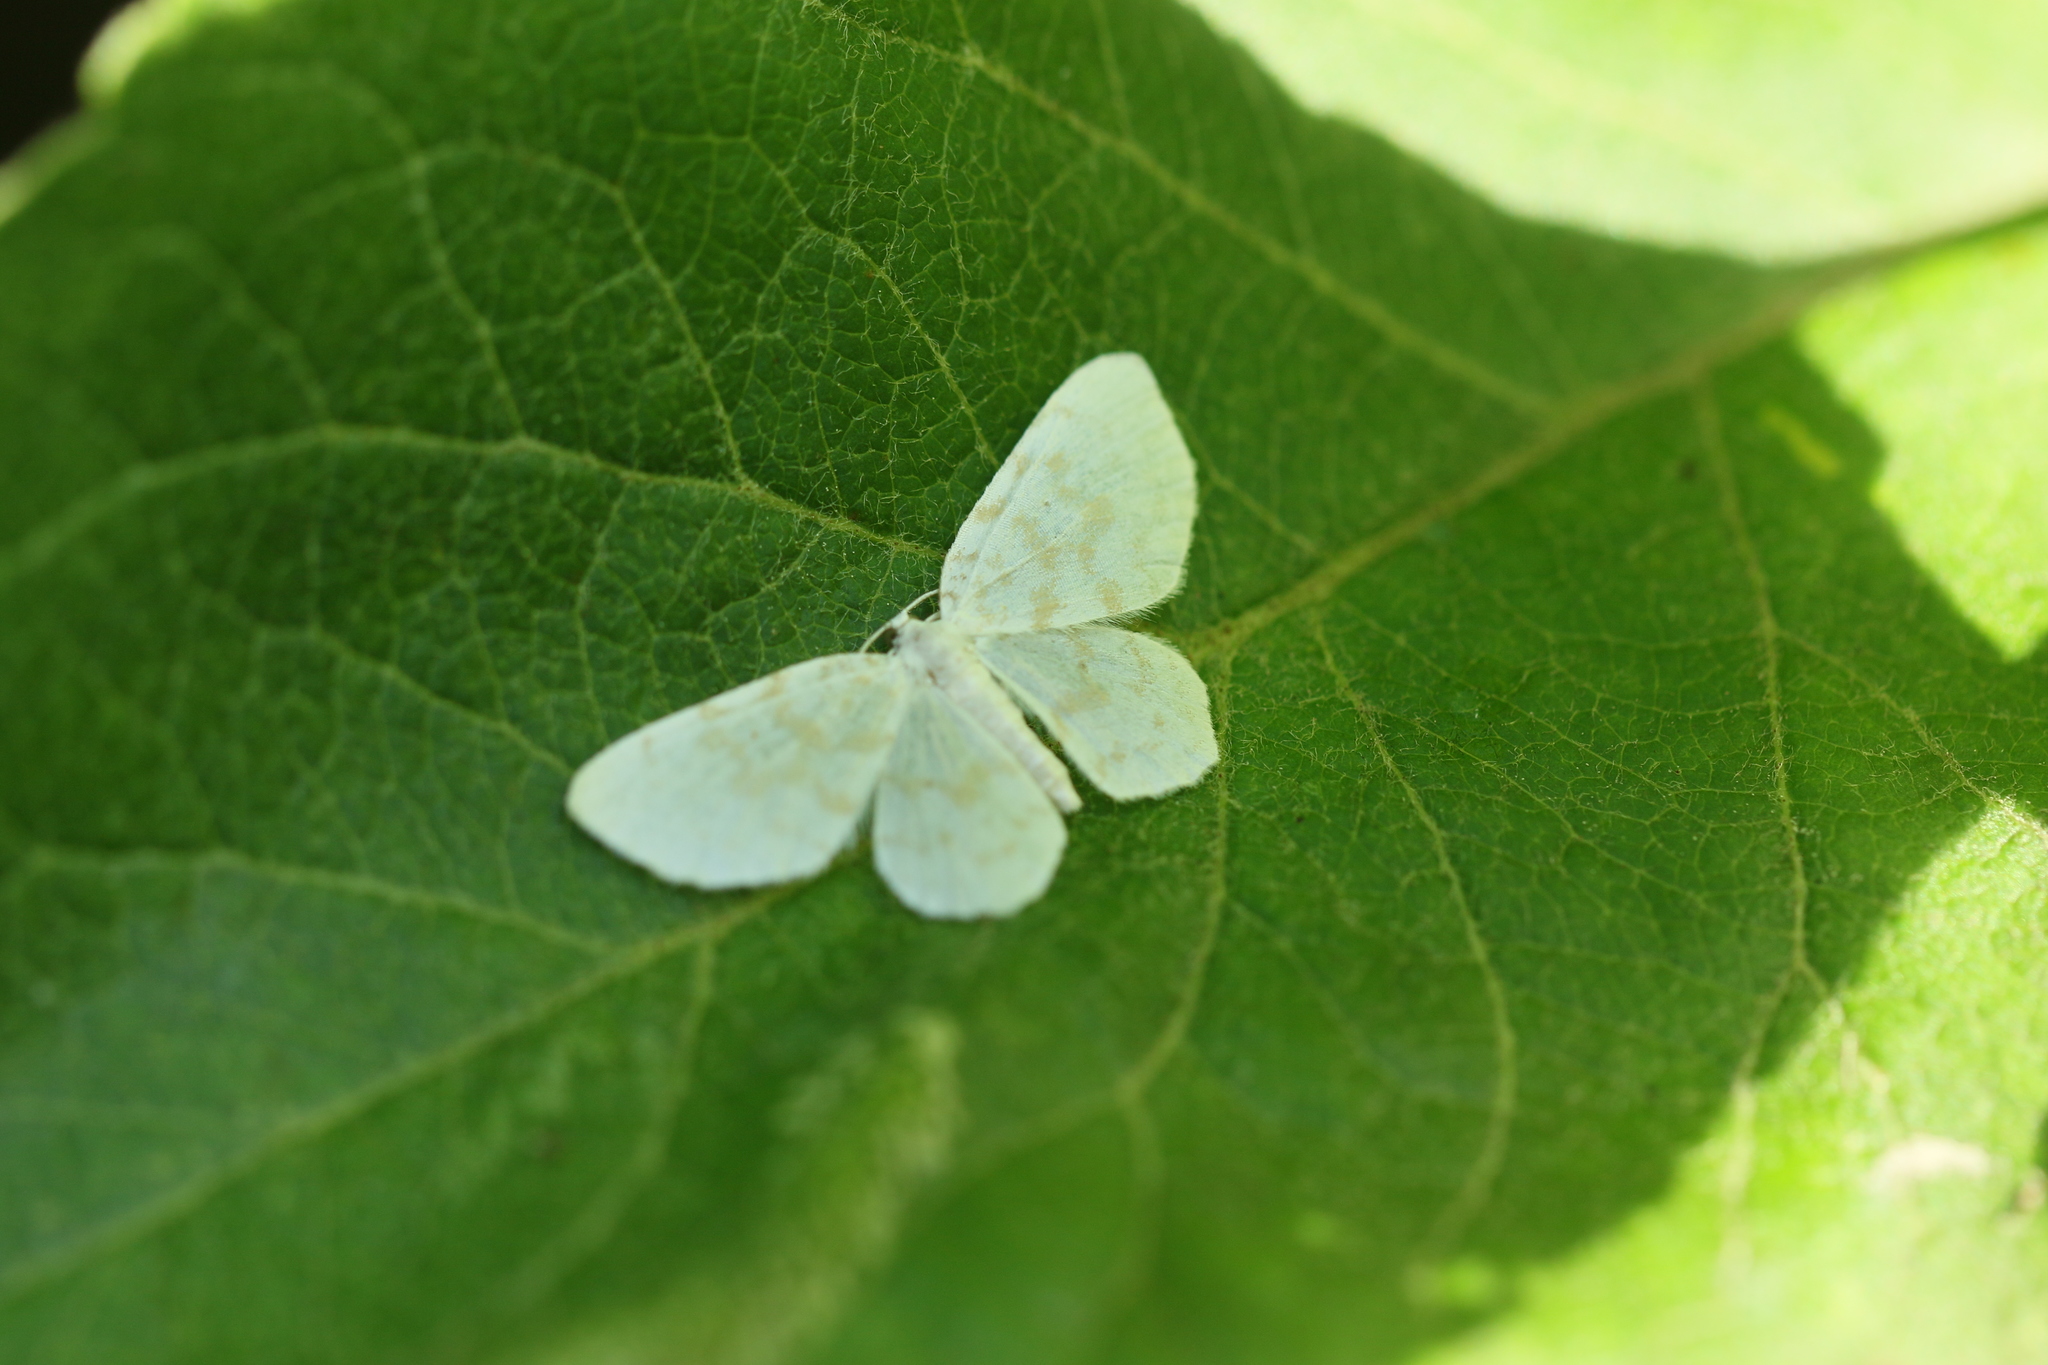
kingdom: Animalia
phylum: Arthropoda
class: Insecta
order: Lepidoptera
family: Geometridae
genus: Hydrelia
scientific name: Hydrelia albifera
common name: Fragile white carpet
